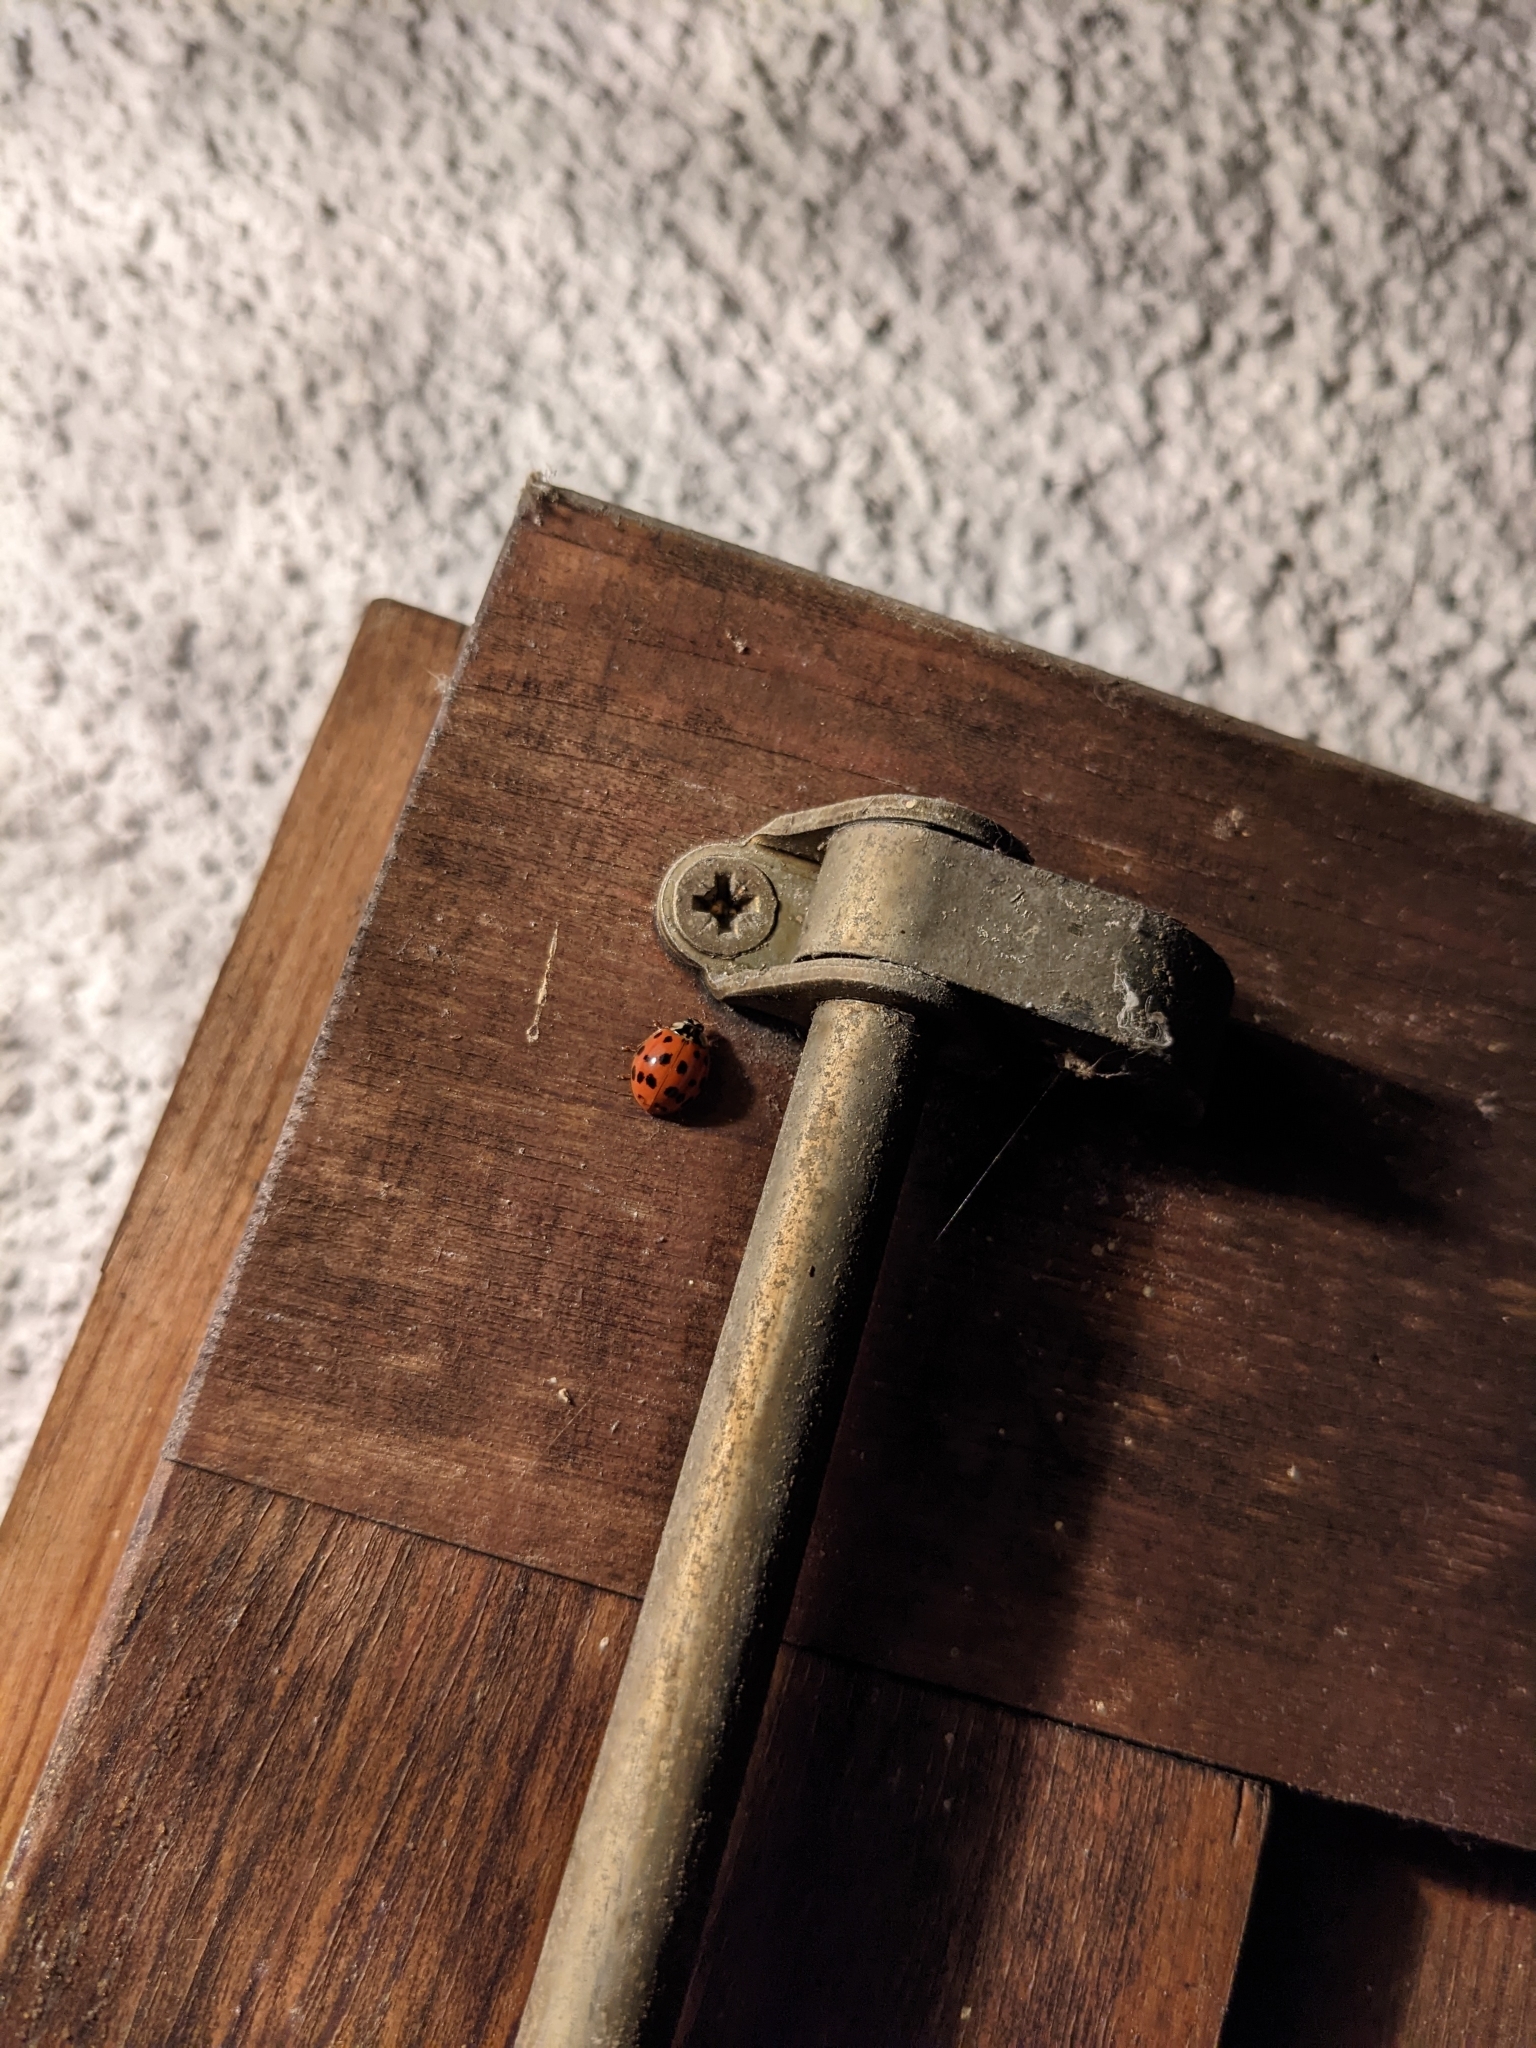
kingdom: Animalia
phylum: Arthropoda
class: Insecta
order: Coleoptera
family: Coccinellidae
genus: Harmonia
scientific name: Harmonia axyridis
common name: Harlequin ladybird
